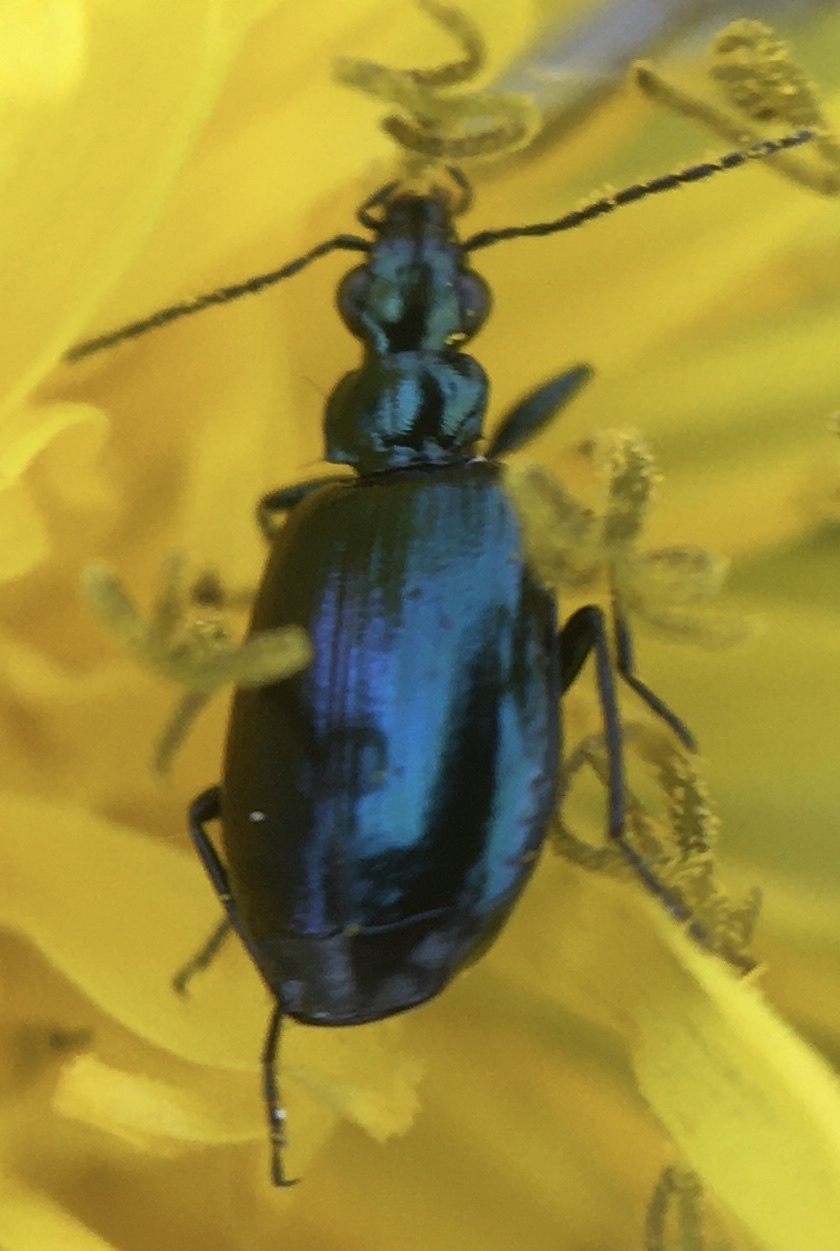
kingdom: Animalia
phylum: Arthropoda
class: Insecta
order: Coleoptera
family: Carabidae
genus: Lebia
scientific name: Lebia viridis
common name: Flower lebia beetle
